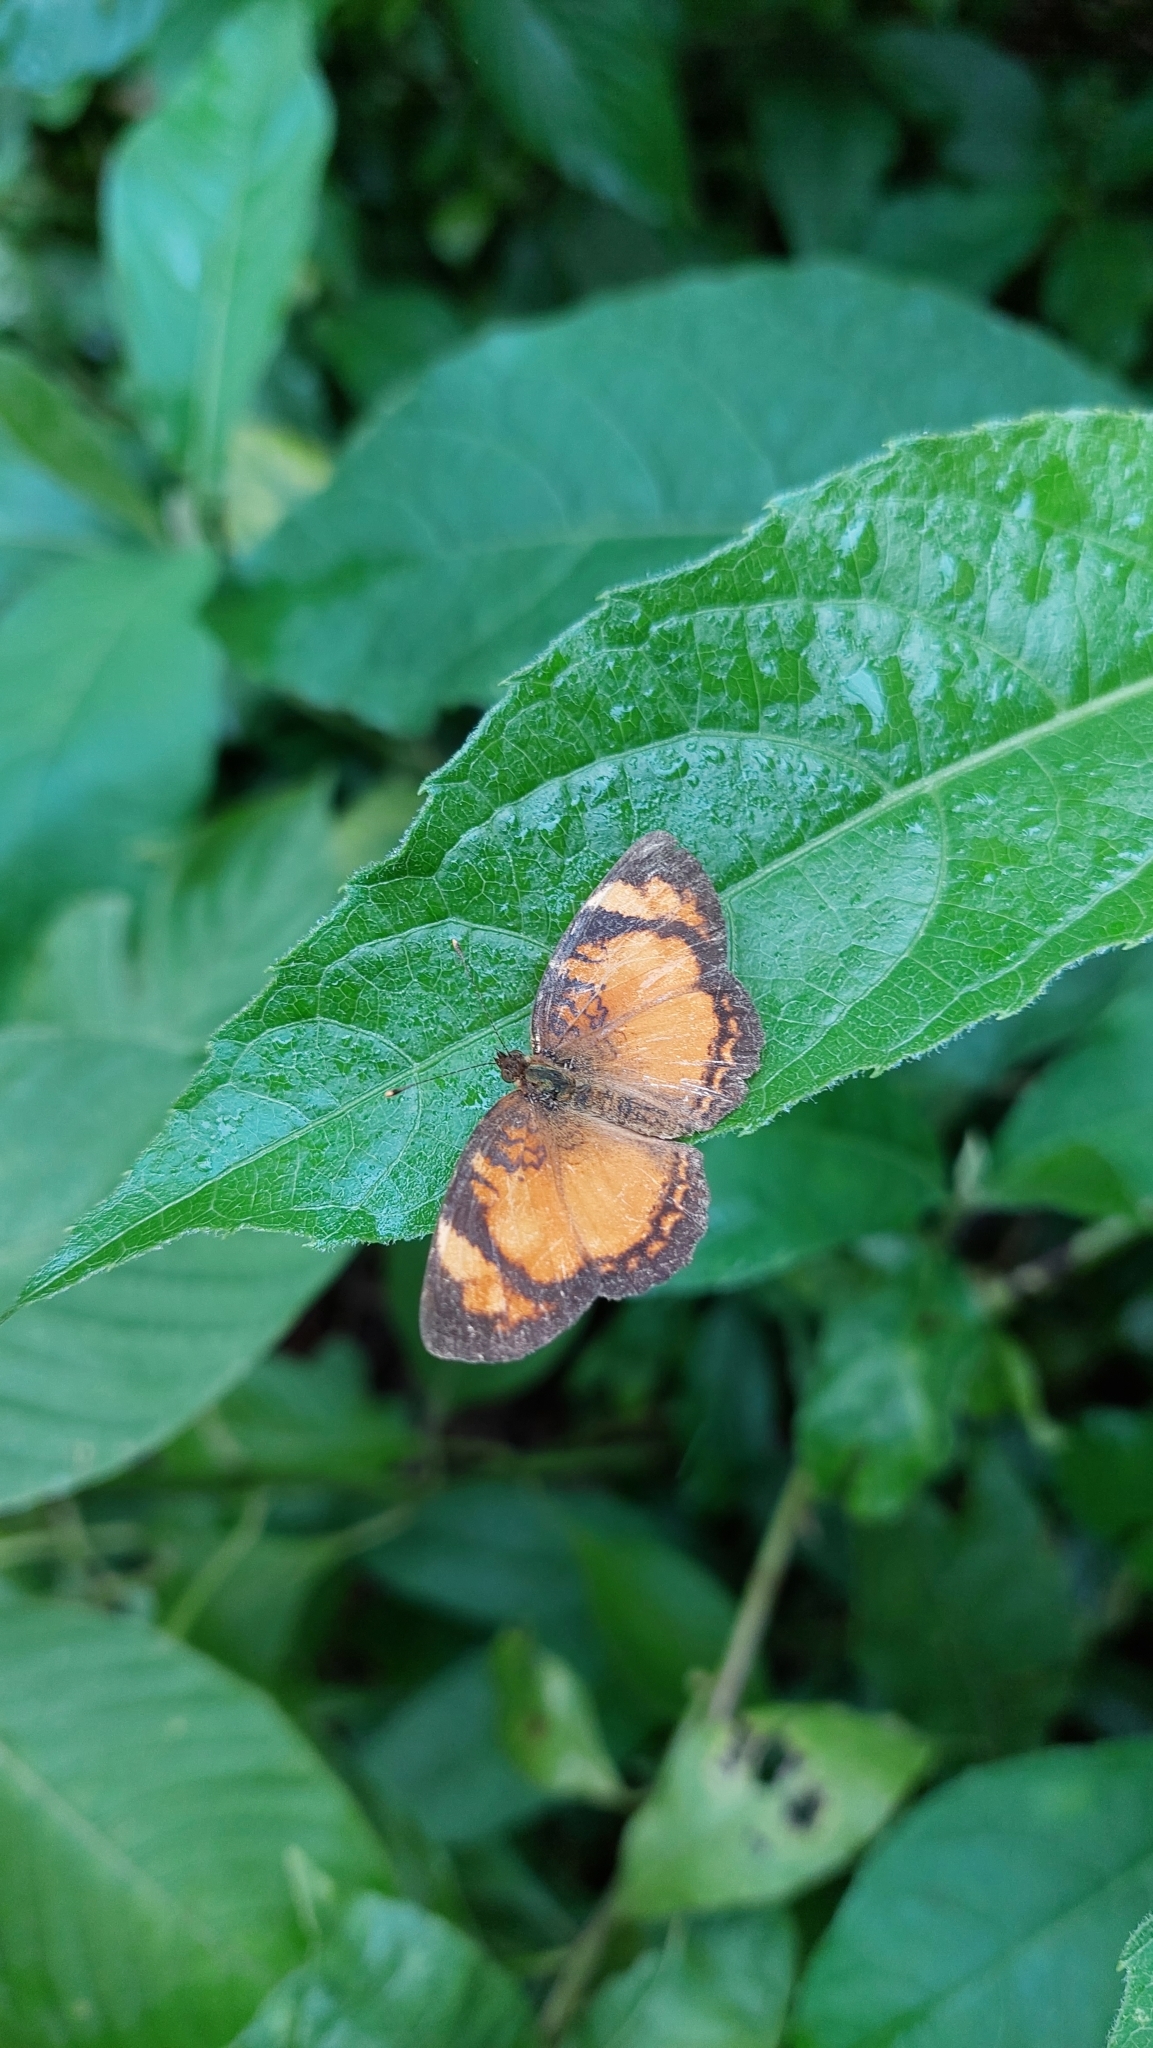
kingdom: Animalia
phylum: Arthropoda
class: Insecta
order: Lepidoptera
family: Nymphalidae
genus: Tegosa
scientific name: Tegosa claudina
